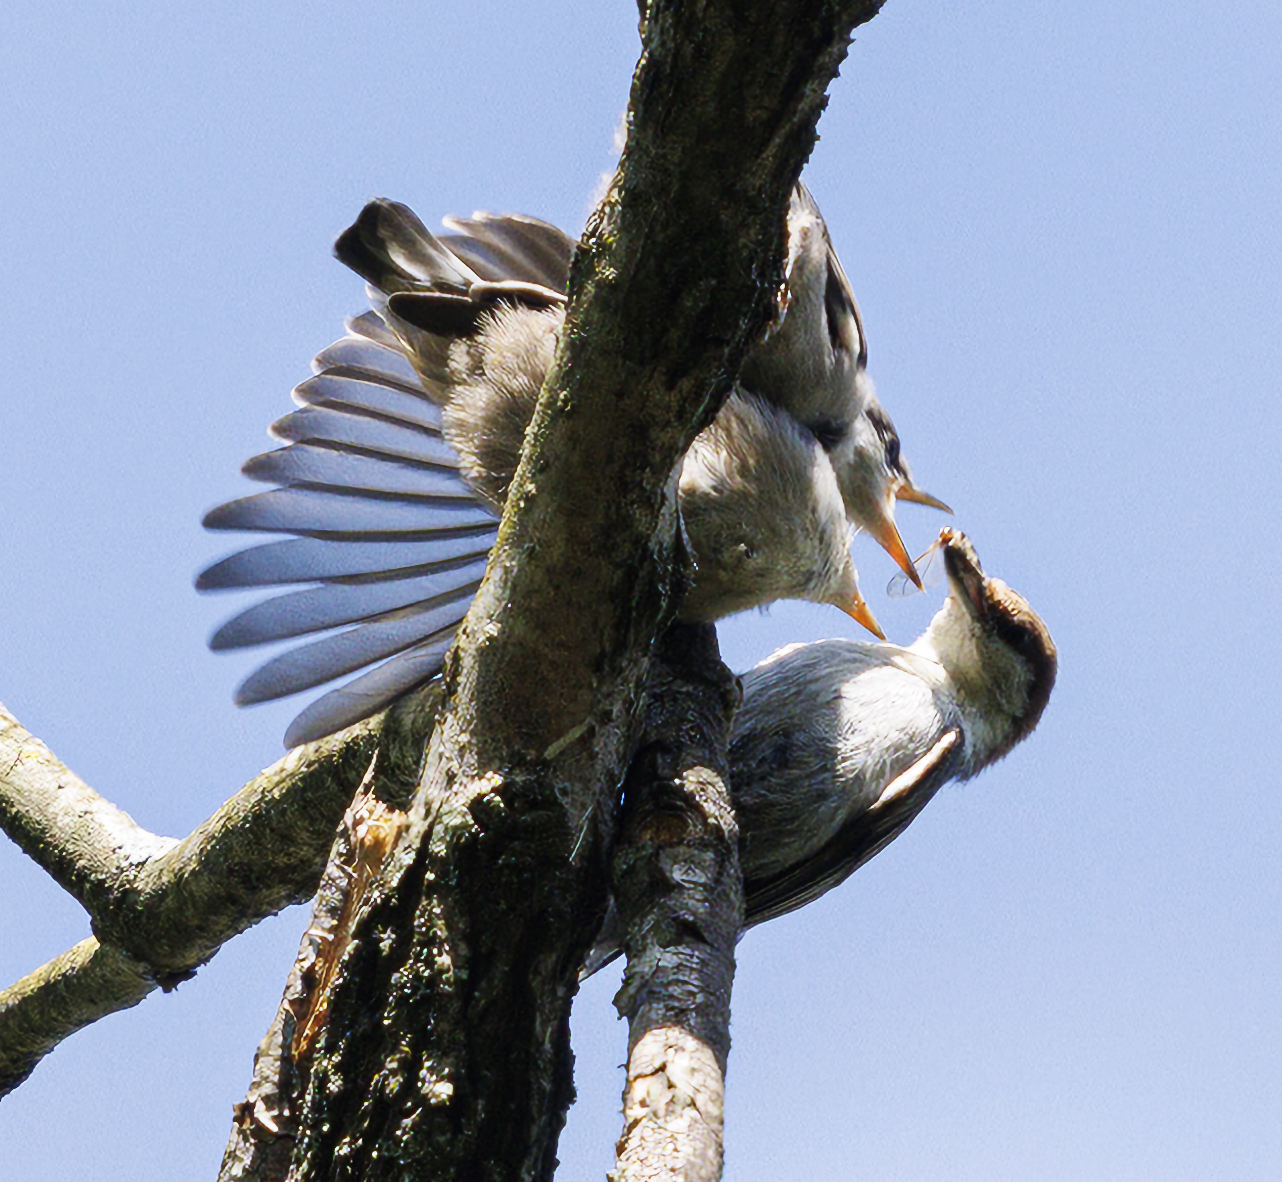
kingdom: Animalia
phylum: Chordata
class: Aves
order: Passeriformes
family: Sittidae
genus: Sitta
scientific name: Sitta pusilla
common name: Brown-headed nuthatch
